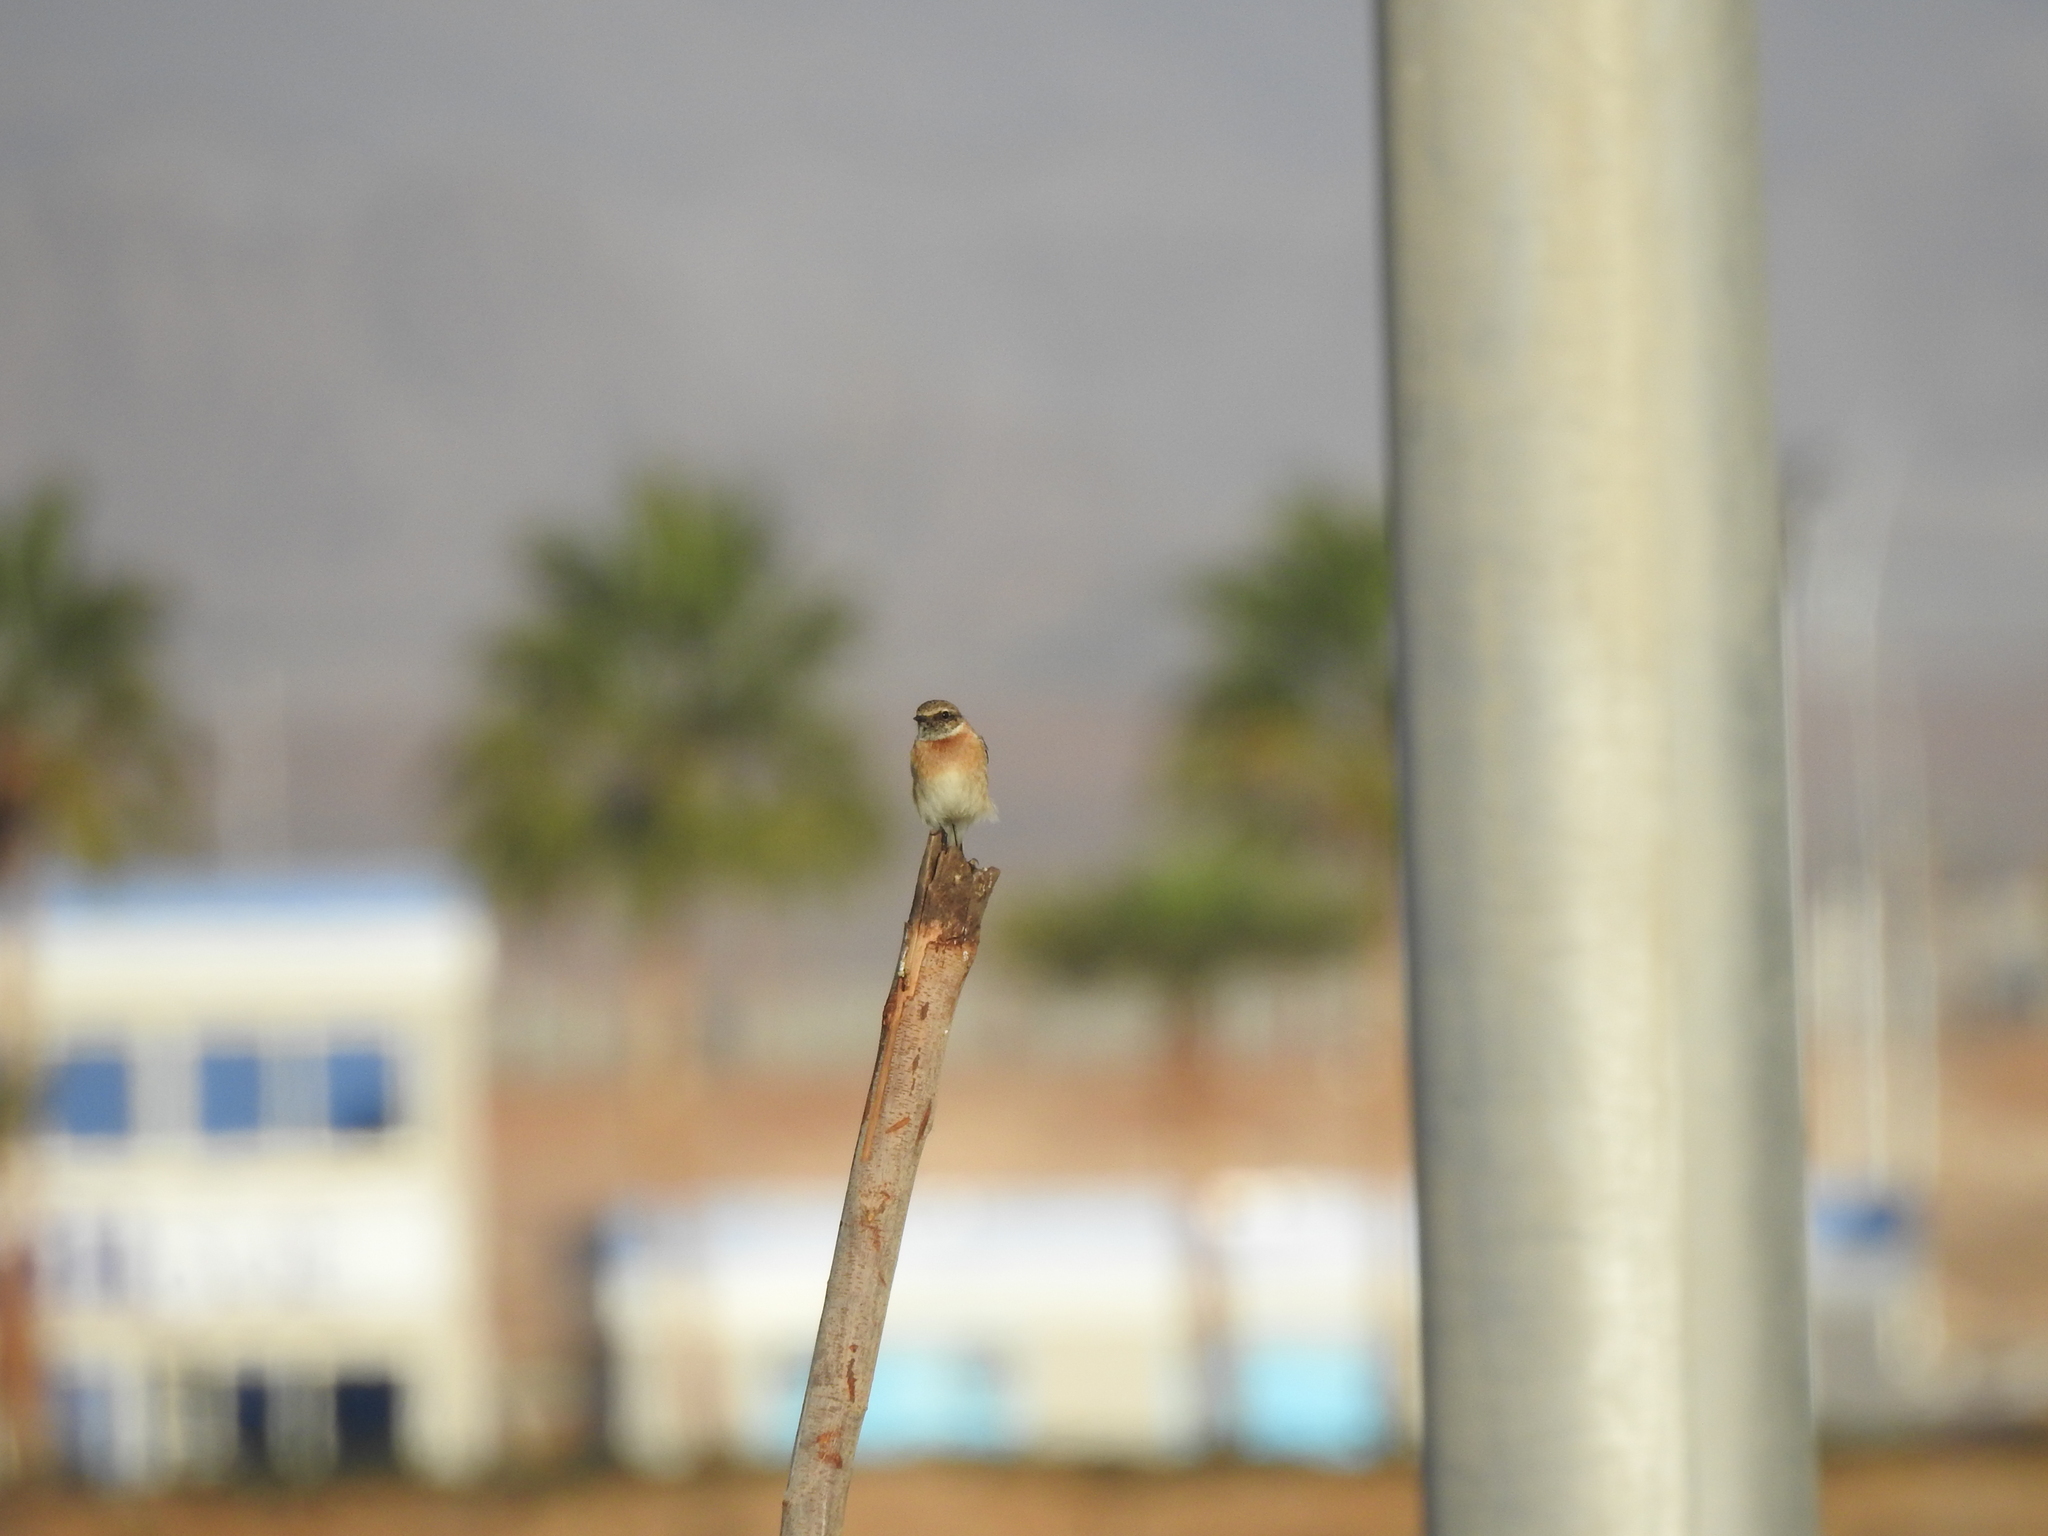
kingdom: Animalia
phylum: Chordata
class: Aves
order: Passeriformes
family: Muscicapidae
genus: Saxicola
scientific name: Saxicola rubicola
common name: European stonechat
